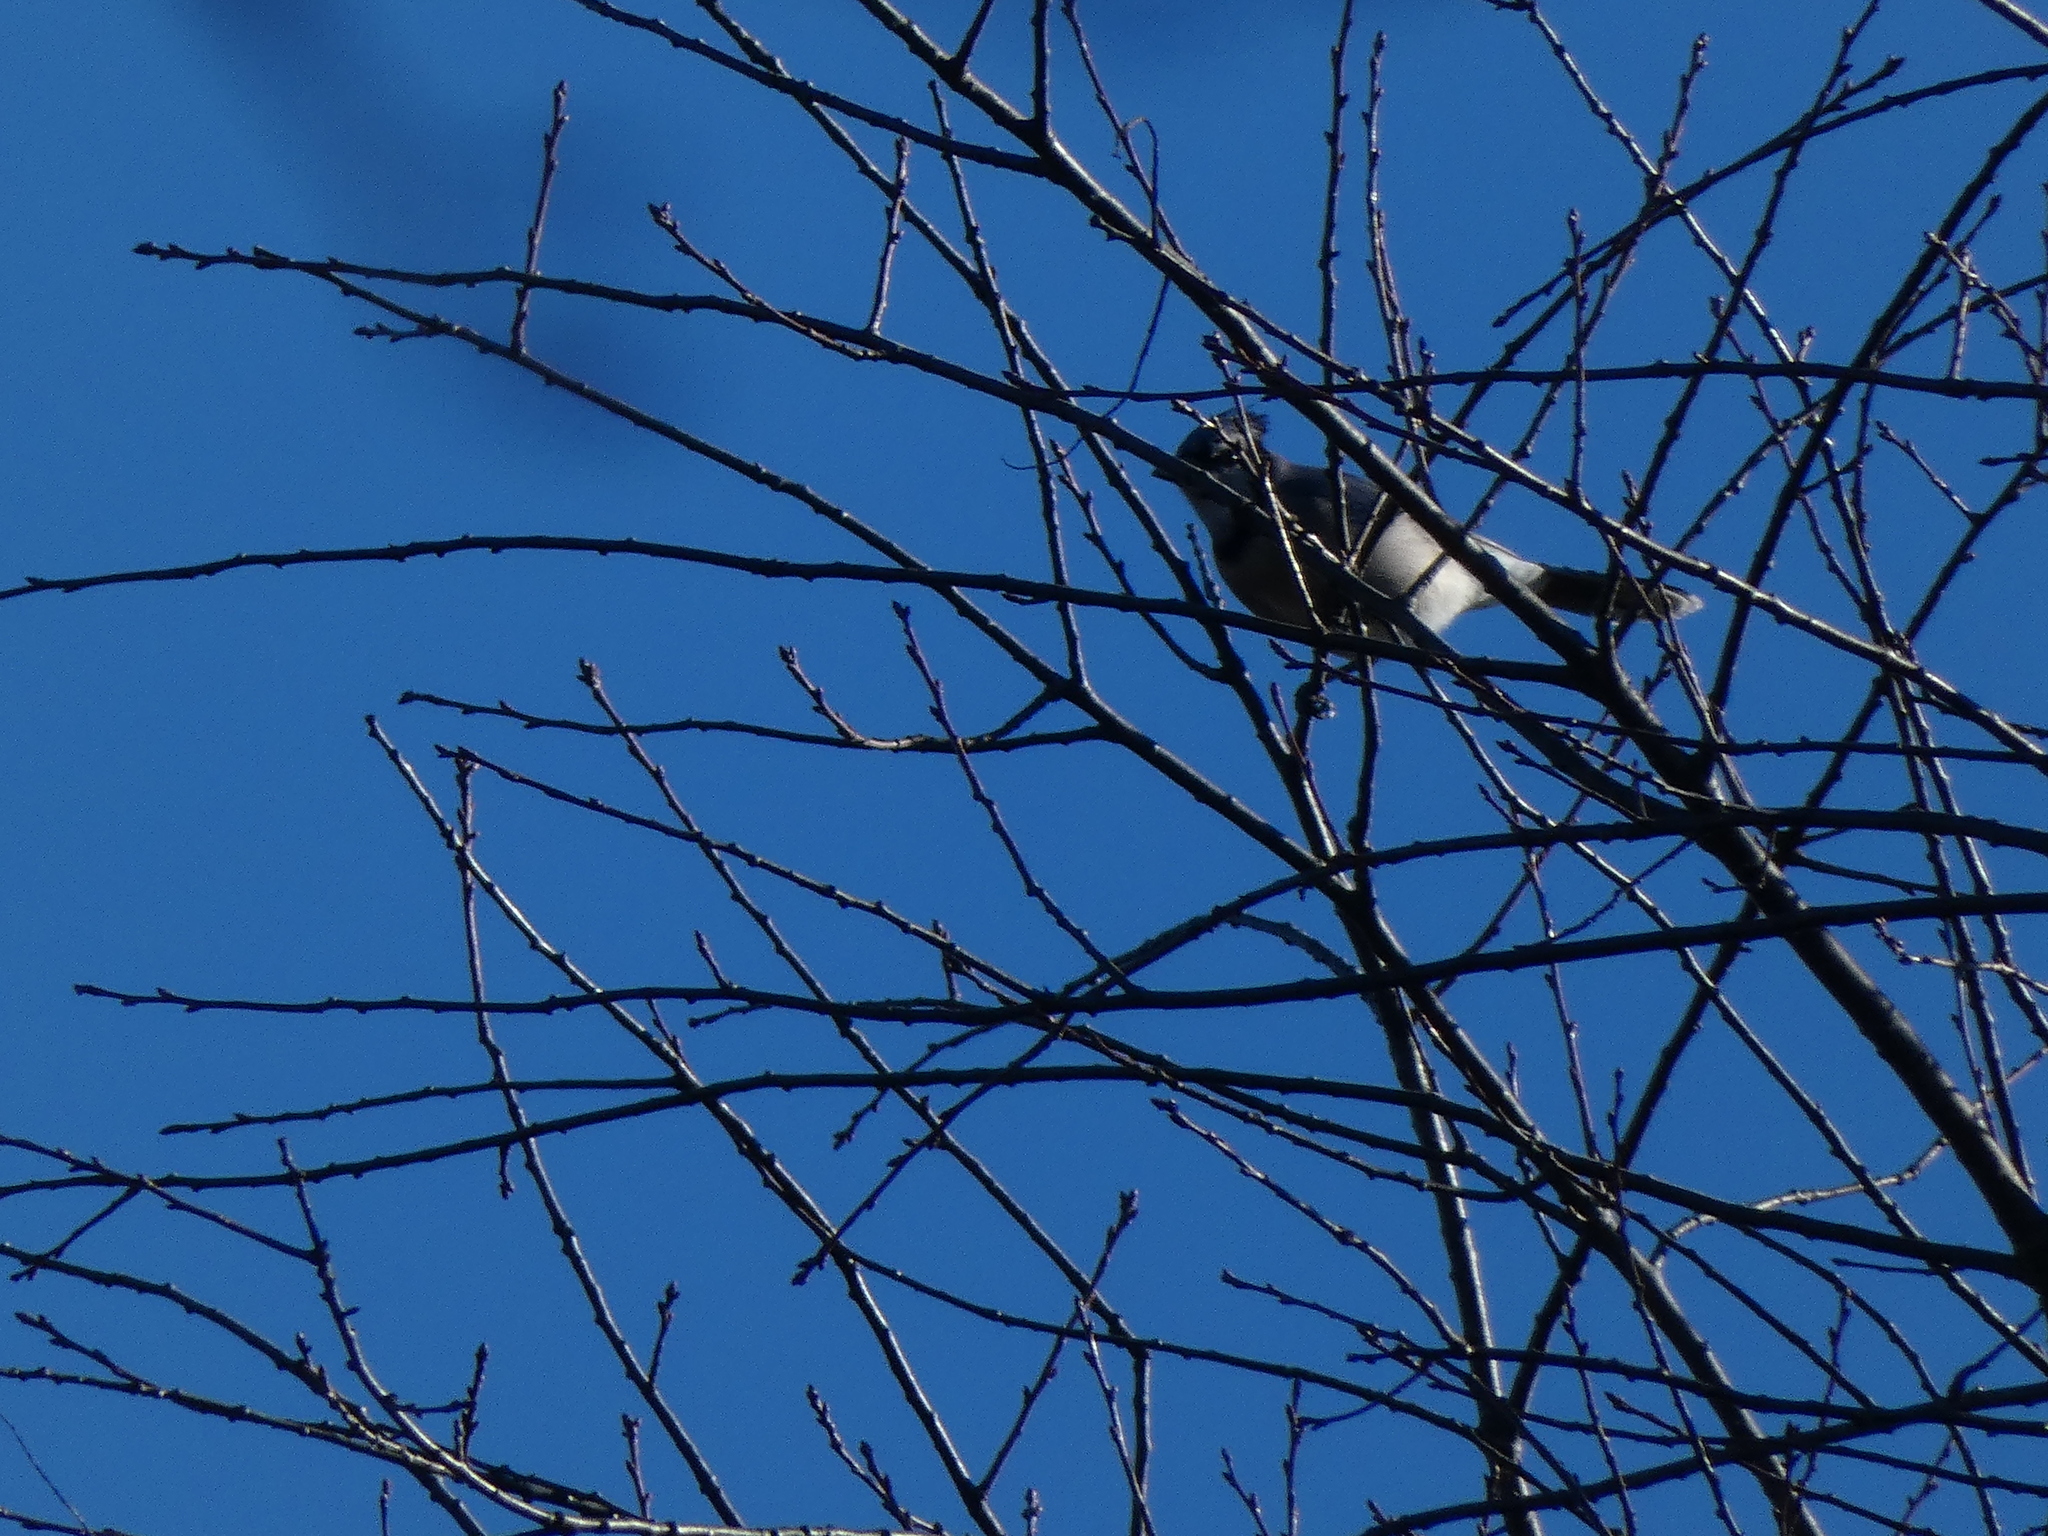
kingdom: Animalia
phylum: Chordata
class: Aves
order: Passeriformes
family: Corvidae
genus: Cyanocitta
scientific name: Cyanocitta cristata
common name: Blue jay
